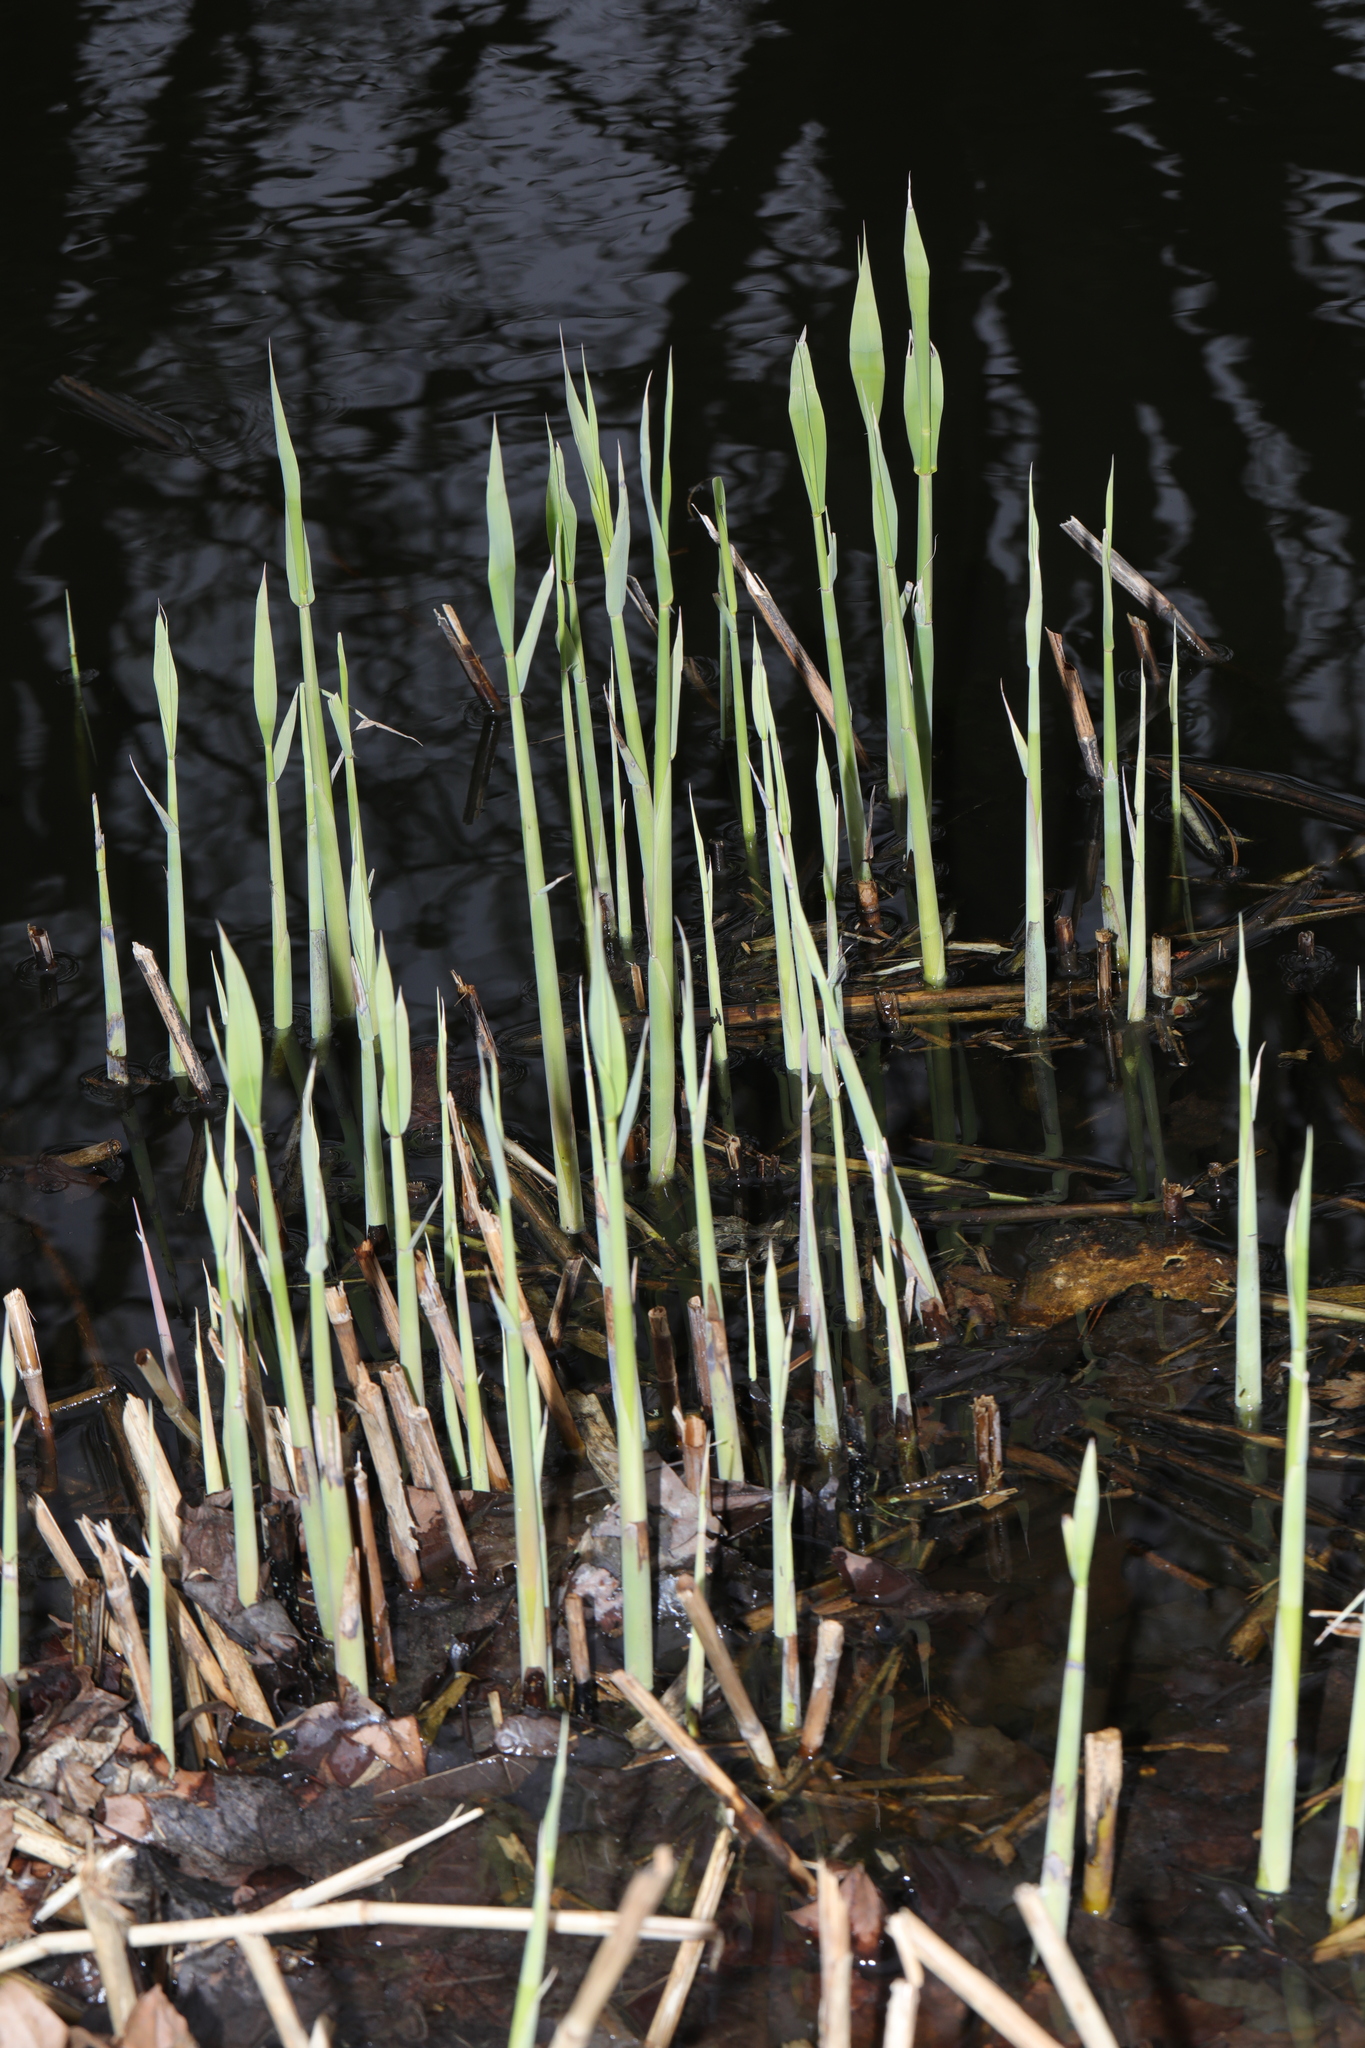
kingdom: Plantae
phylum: Tracheophyta
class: Liliopsida
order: Poales
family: Poaceae
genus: Phragmites
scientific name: Phragmites australis
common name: Common reed
